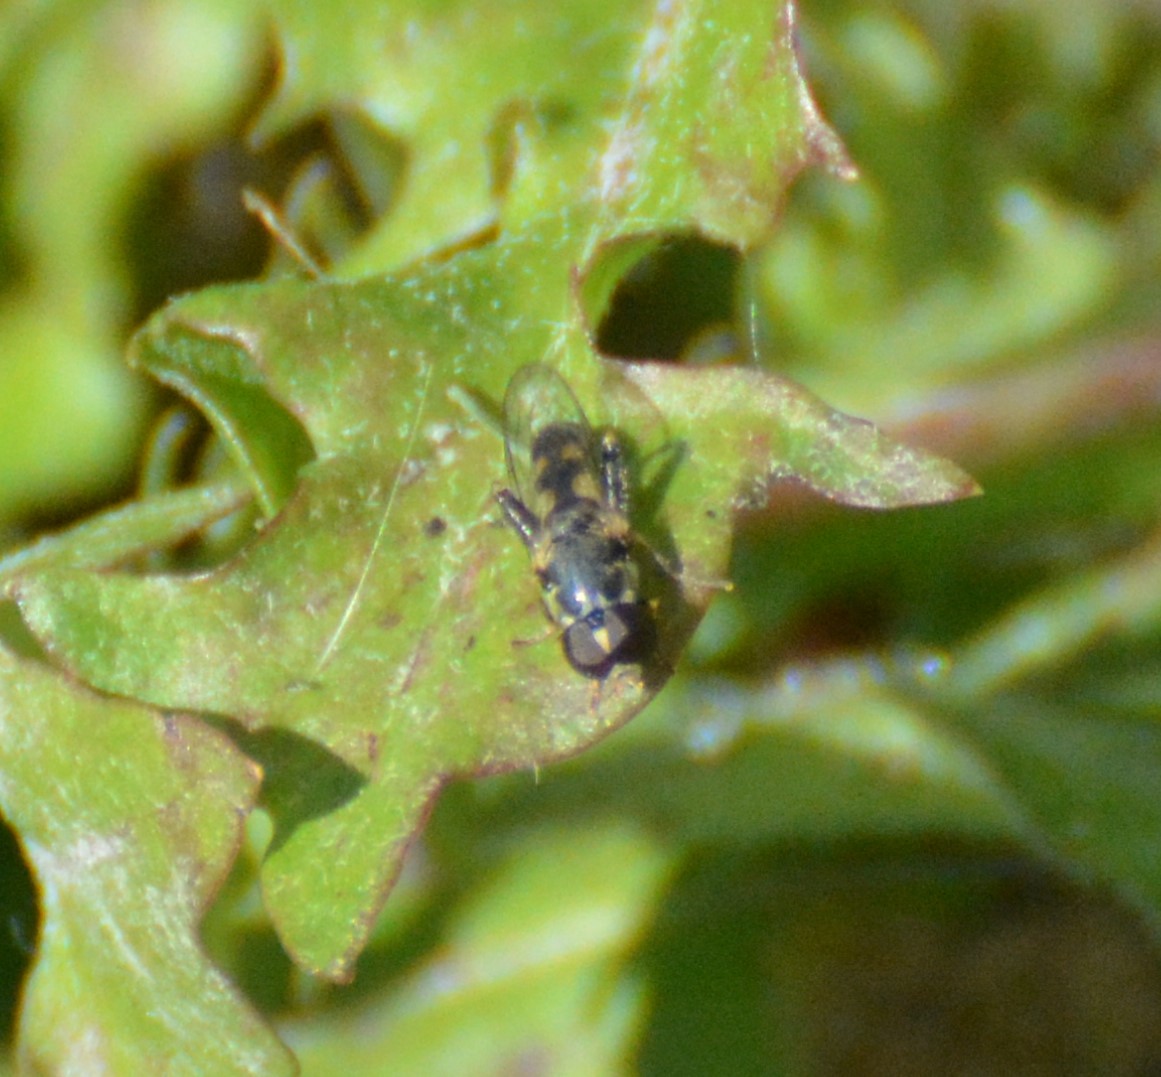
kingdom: Animalia
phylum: Arthropoda
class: Insecta
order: Diptera
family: Syrphidae
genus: Syritta
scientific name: Syritta pipiens
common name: Hover fly
